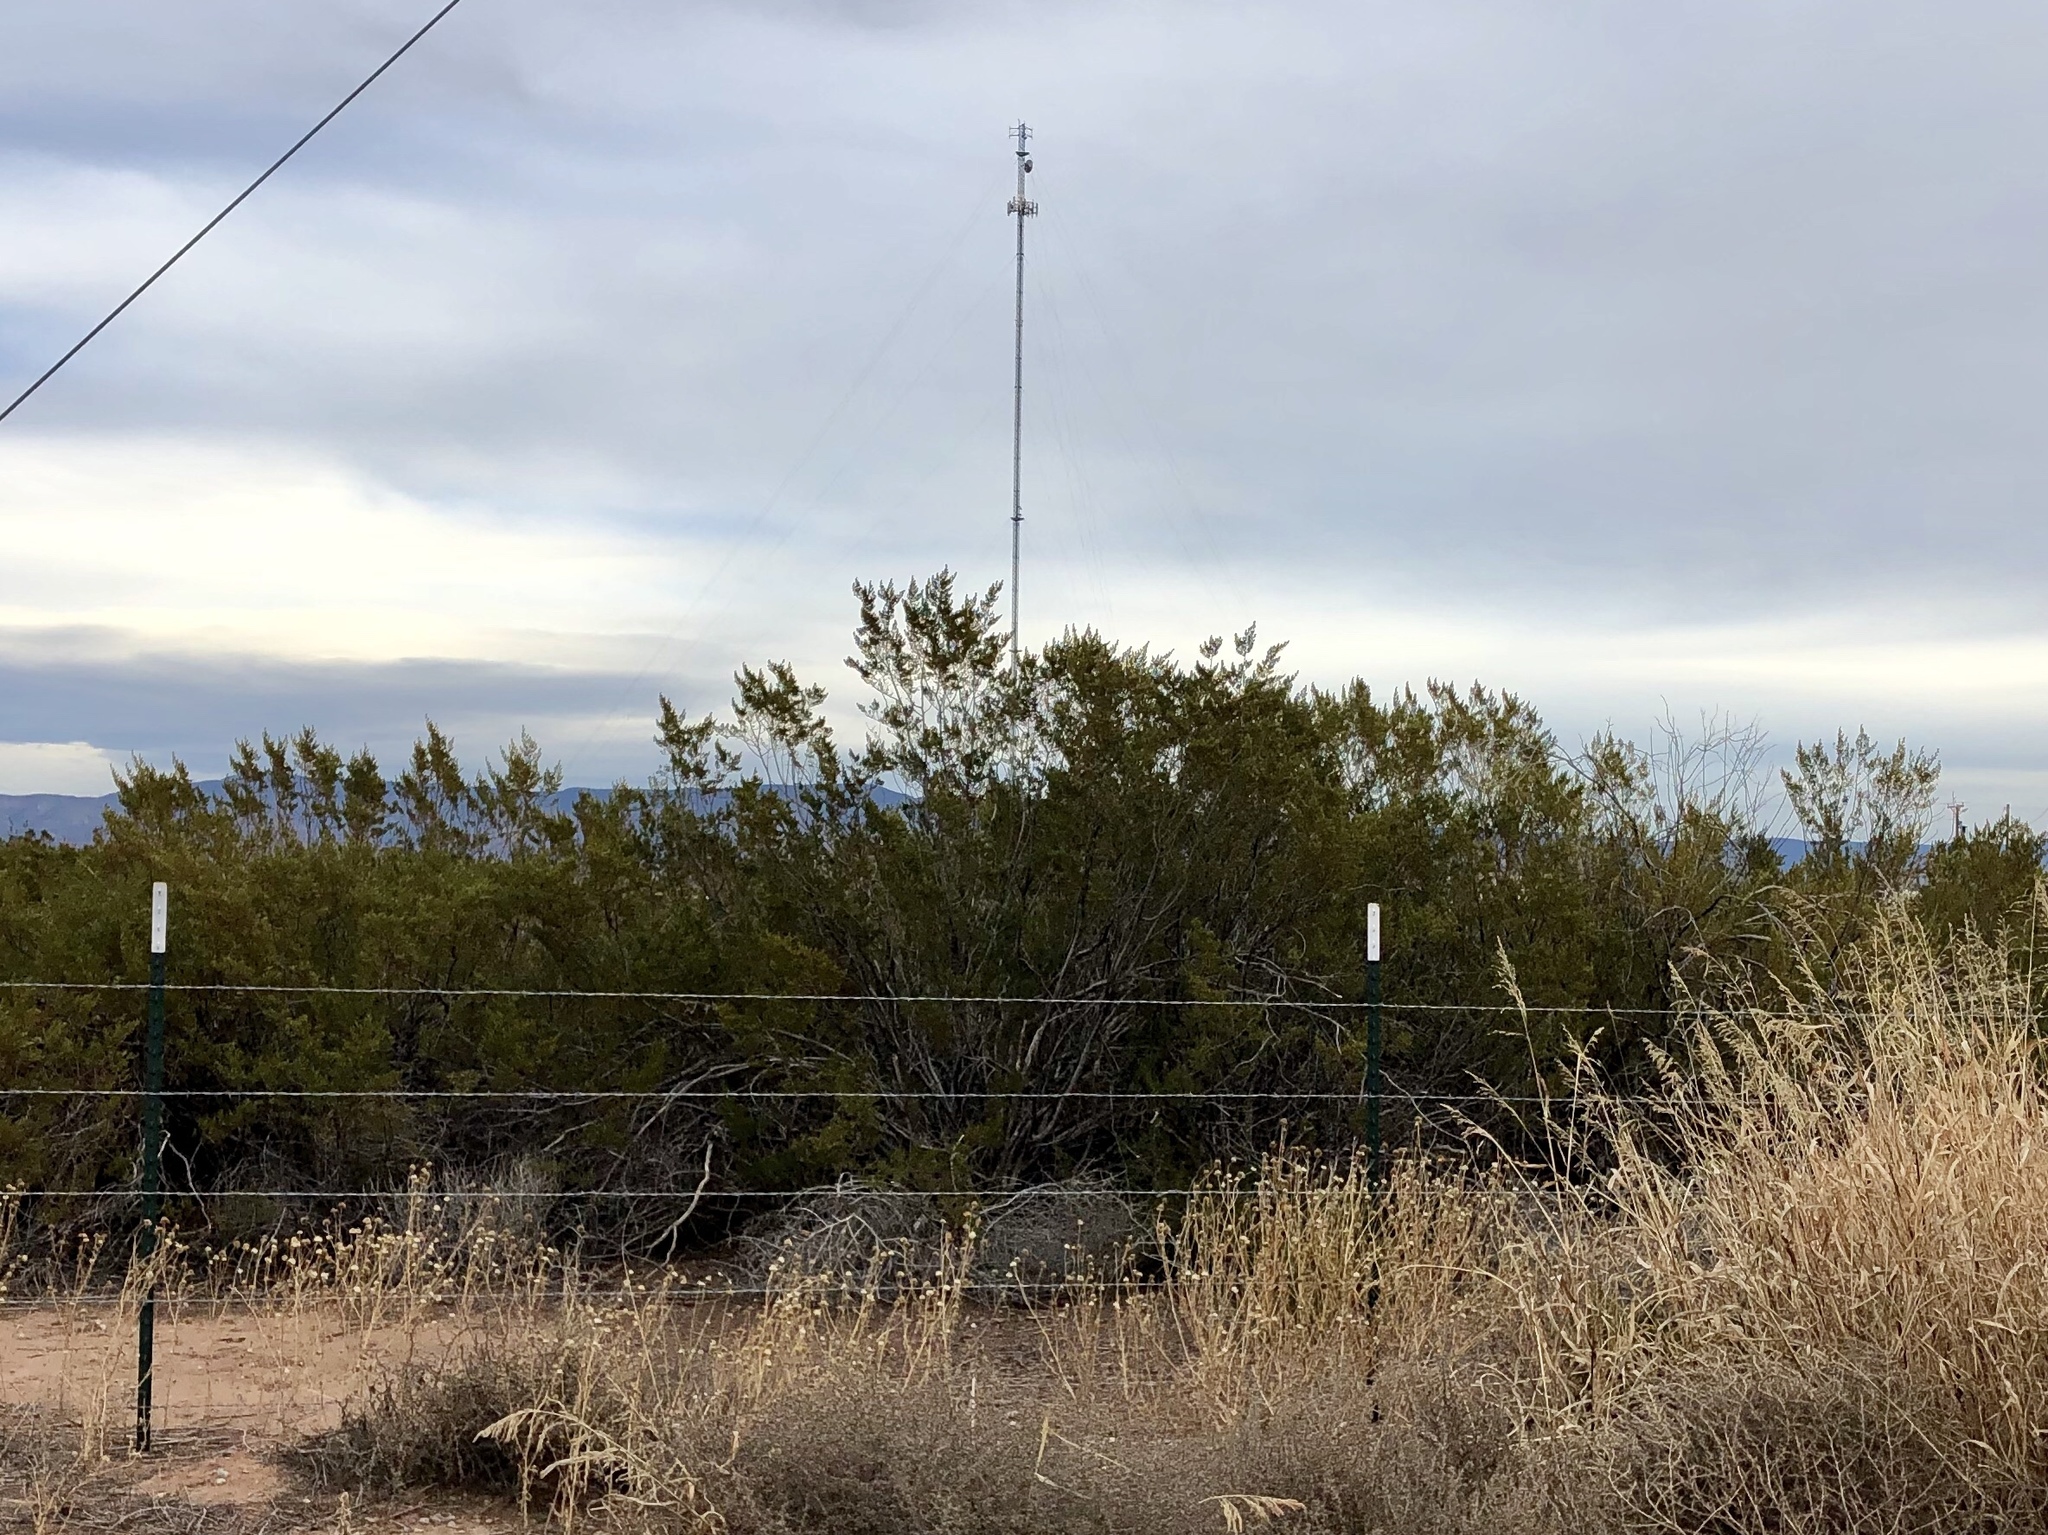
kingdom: Plantae
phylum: Tracheophyta
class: Magnoliopsida
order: Zygophyllales
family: Zygophyllaceae
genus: Larrea
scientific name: Larrea tridentata
